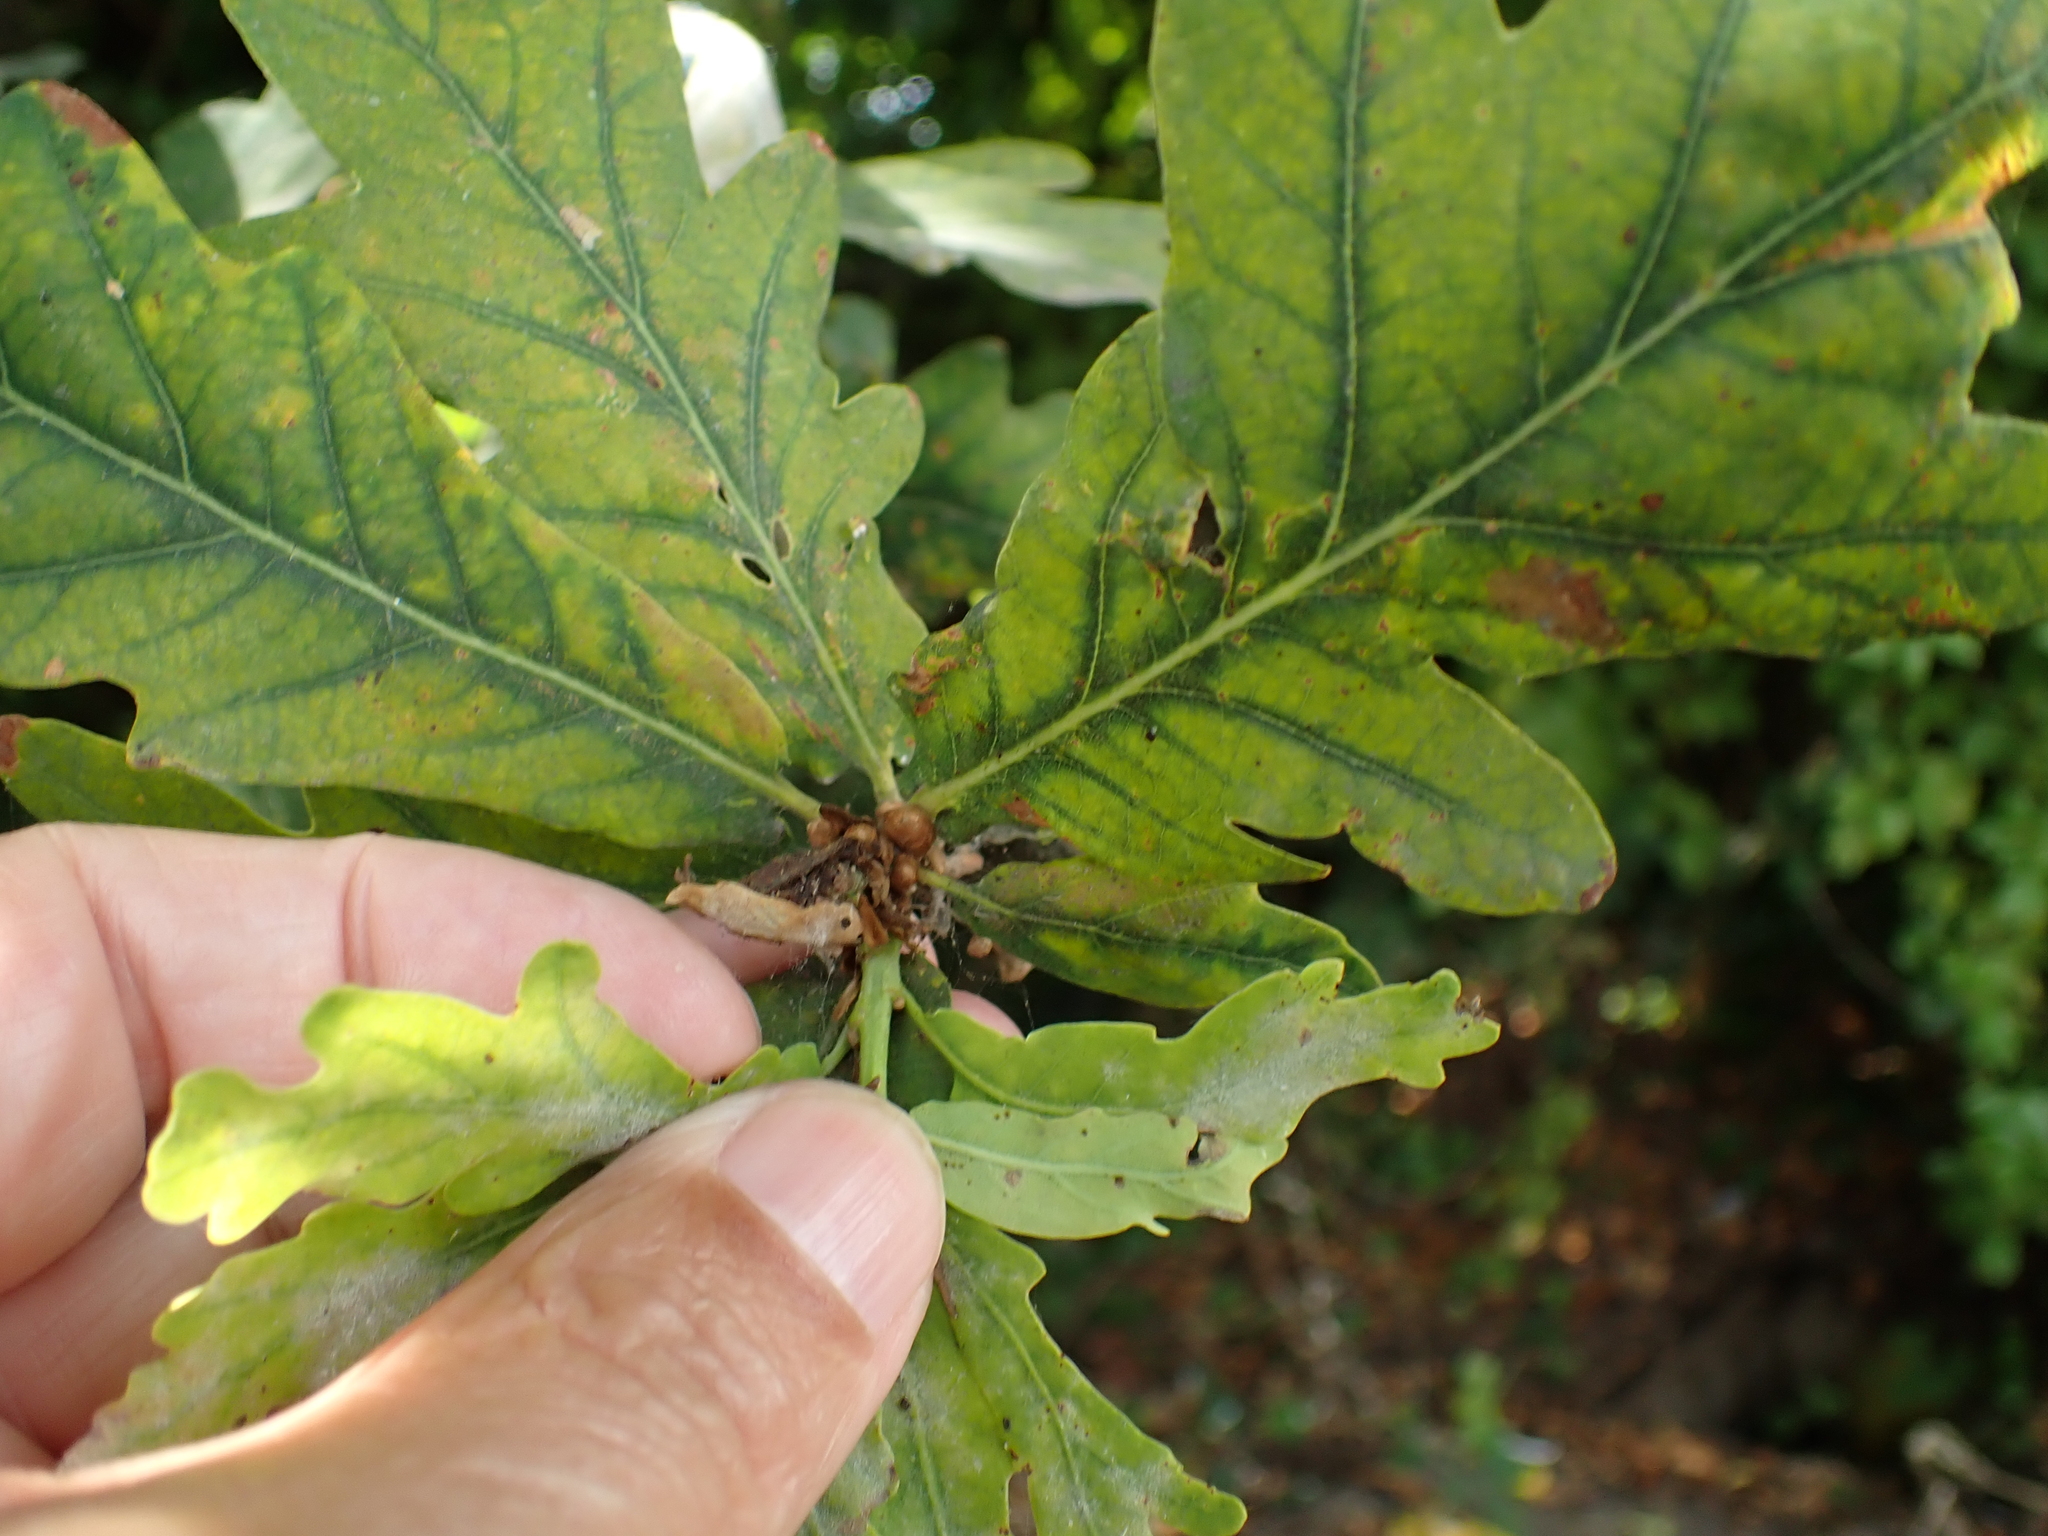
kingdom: Plantae
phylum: Tracheophyta
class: Magnoliopsida
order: Fagales
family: Fagaceae
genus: Quercus
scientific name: Quercus robur
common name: Pedunculate oak
